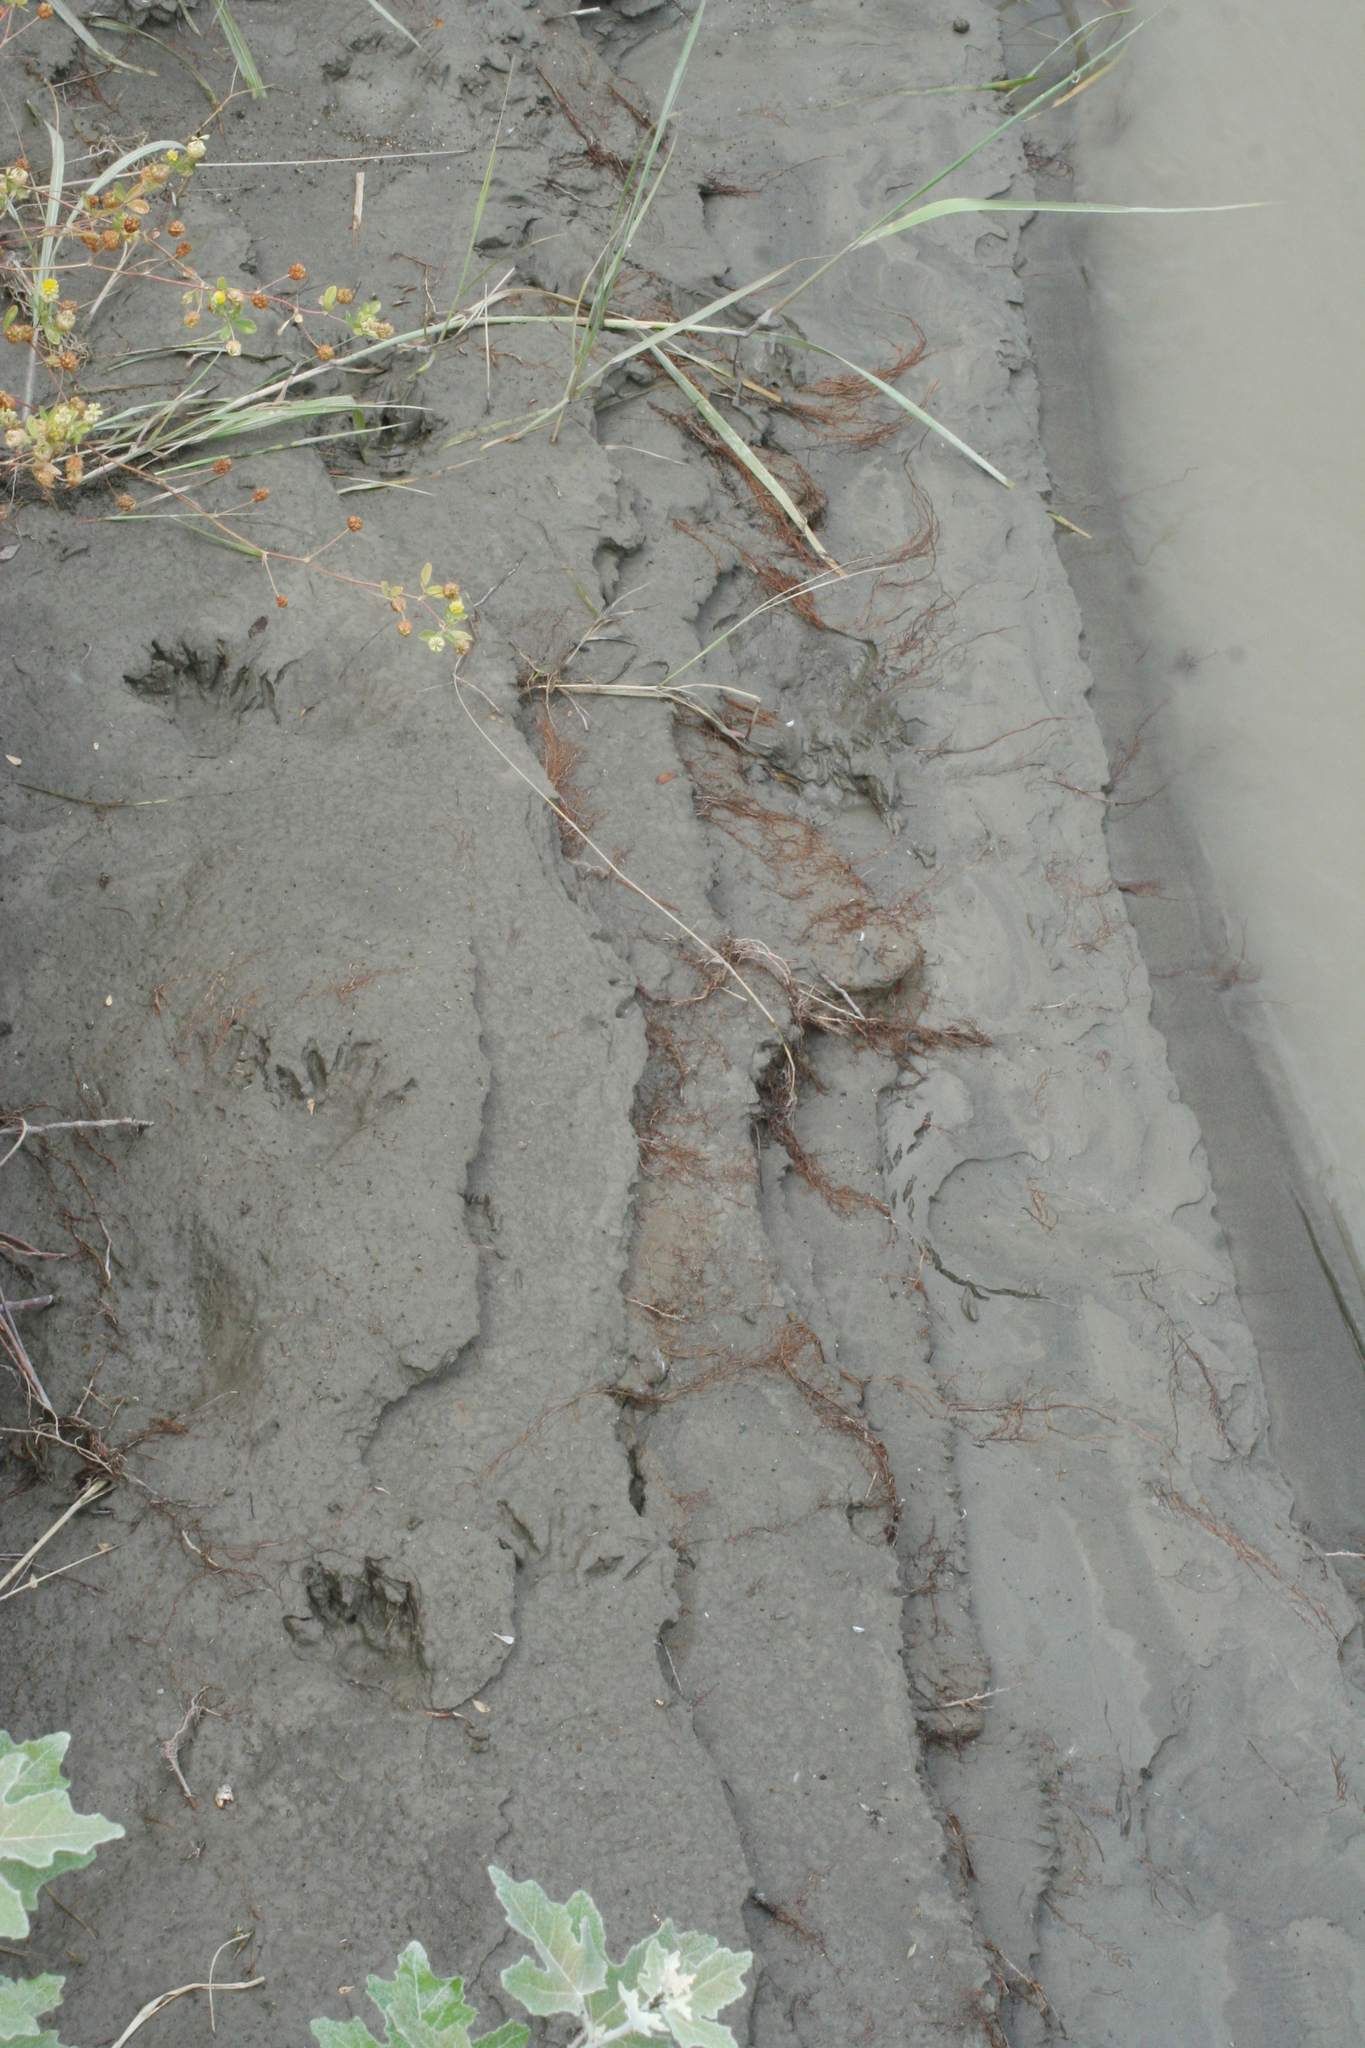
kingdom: Animalia
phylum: Chordata
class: Mammalia
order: Carnivora
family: Procyonidae
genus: Procyon
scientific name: Procyon lotor
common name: Raccoon
